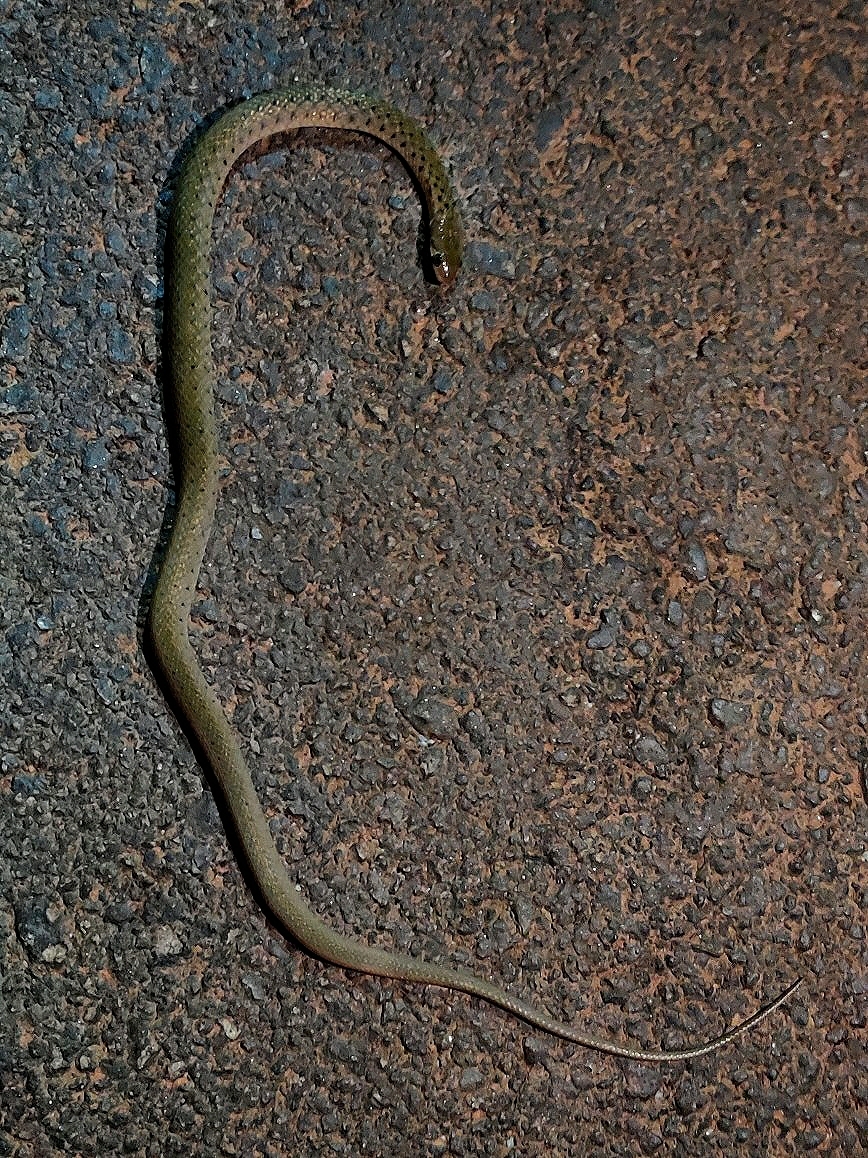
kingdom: Animalia
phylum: Chordata
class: Squamata
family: Colubridae
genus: Fowlea
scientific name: Fowlea piscator
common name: Asiatic water snake
